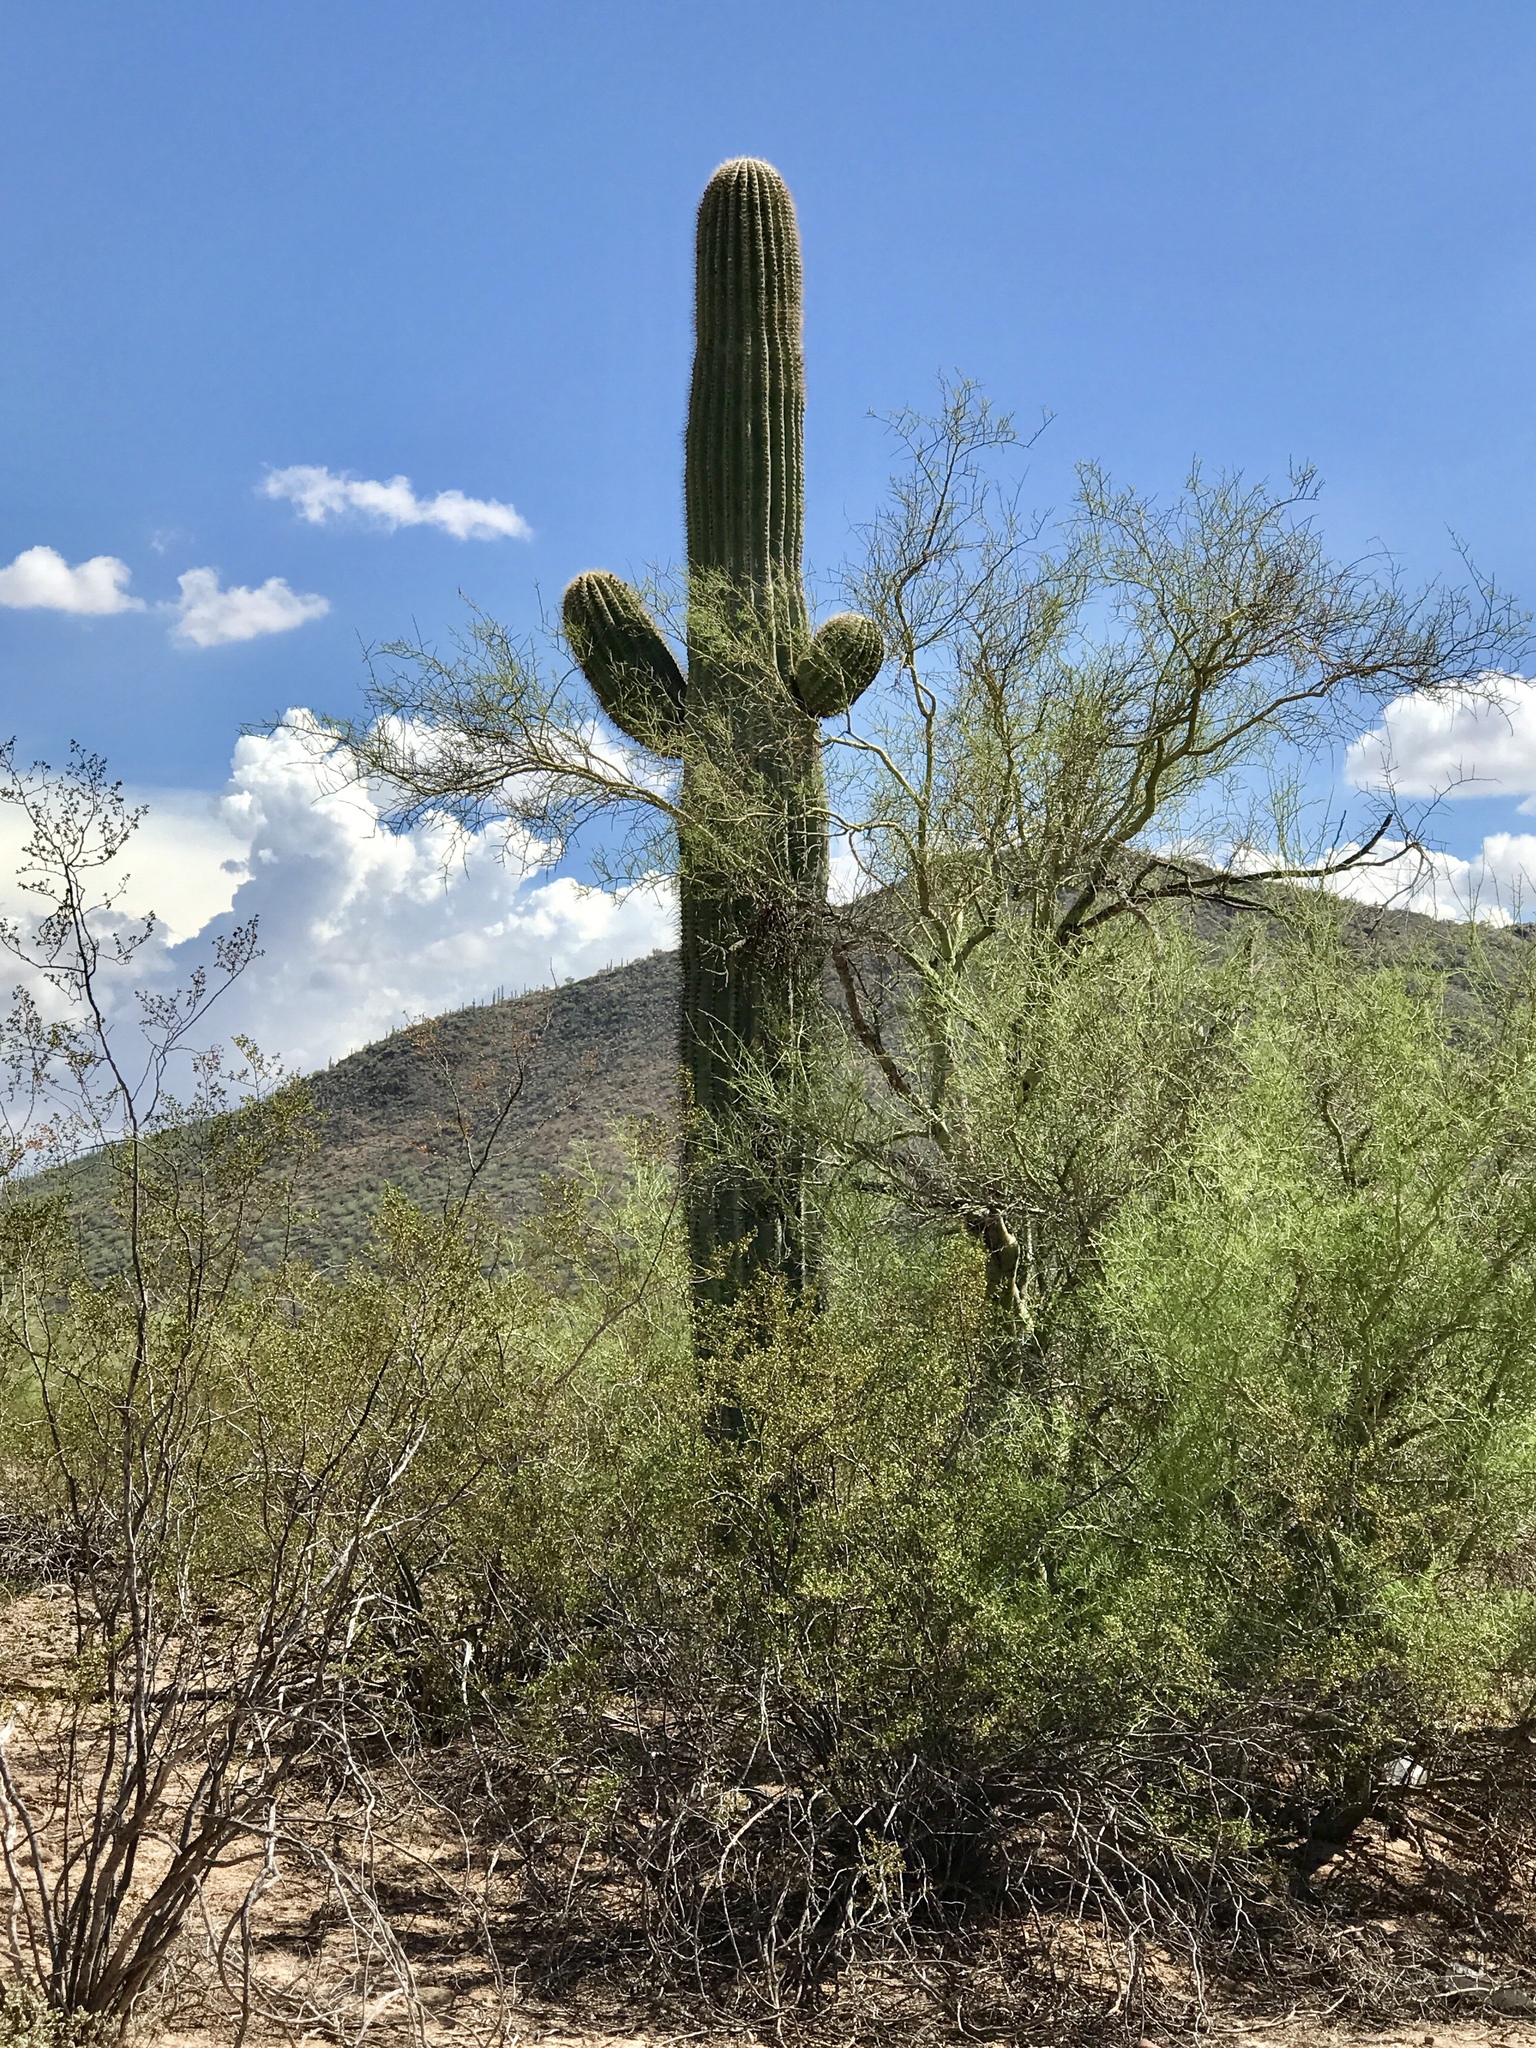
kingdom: Plantae
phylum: Tracheophyta
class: Magnoliopsida
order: Caryophyllales
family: Cactaceae
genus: Carnegiea
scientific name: Carnegiea gigantea
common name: Saguaro
